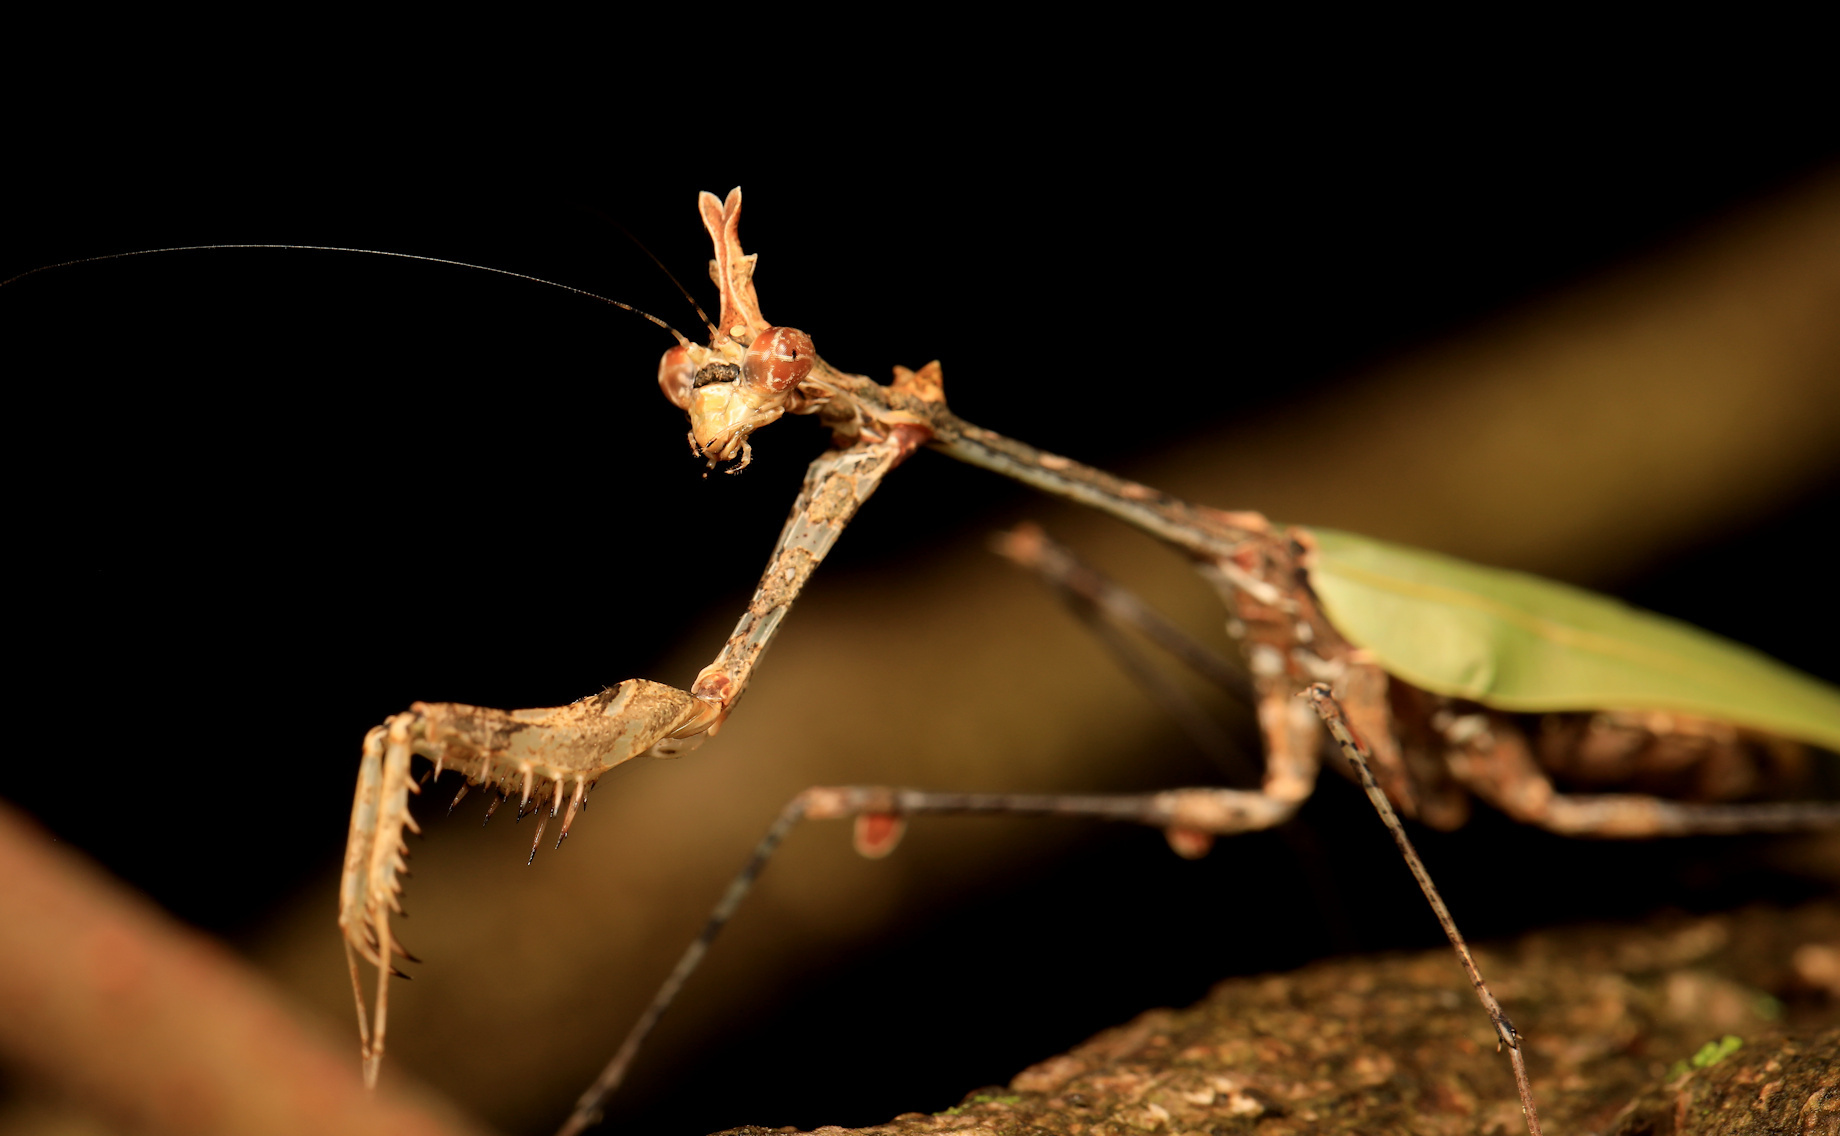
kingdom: Animalia
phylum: Arthropoda
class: Insecta
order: Mantodea
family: Hymenopodidae
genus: Sibylla
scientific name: Sibylla pretiosa
